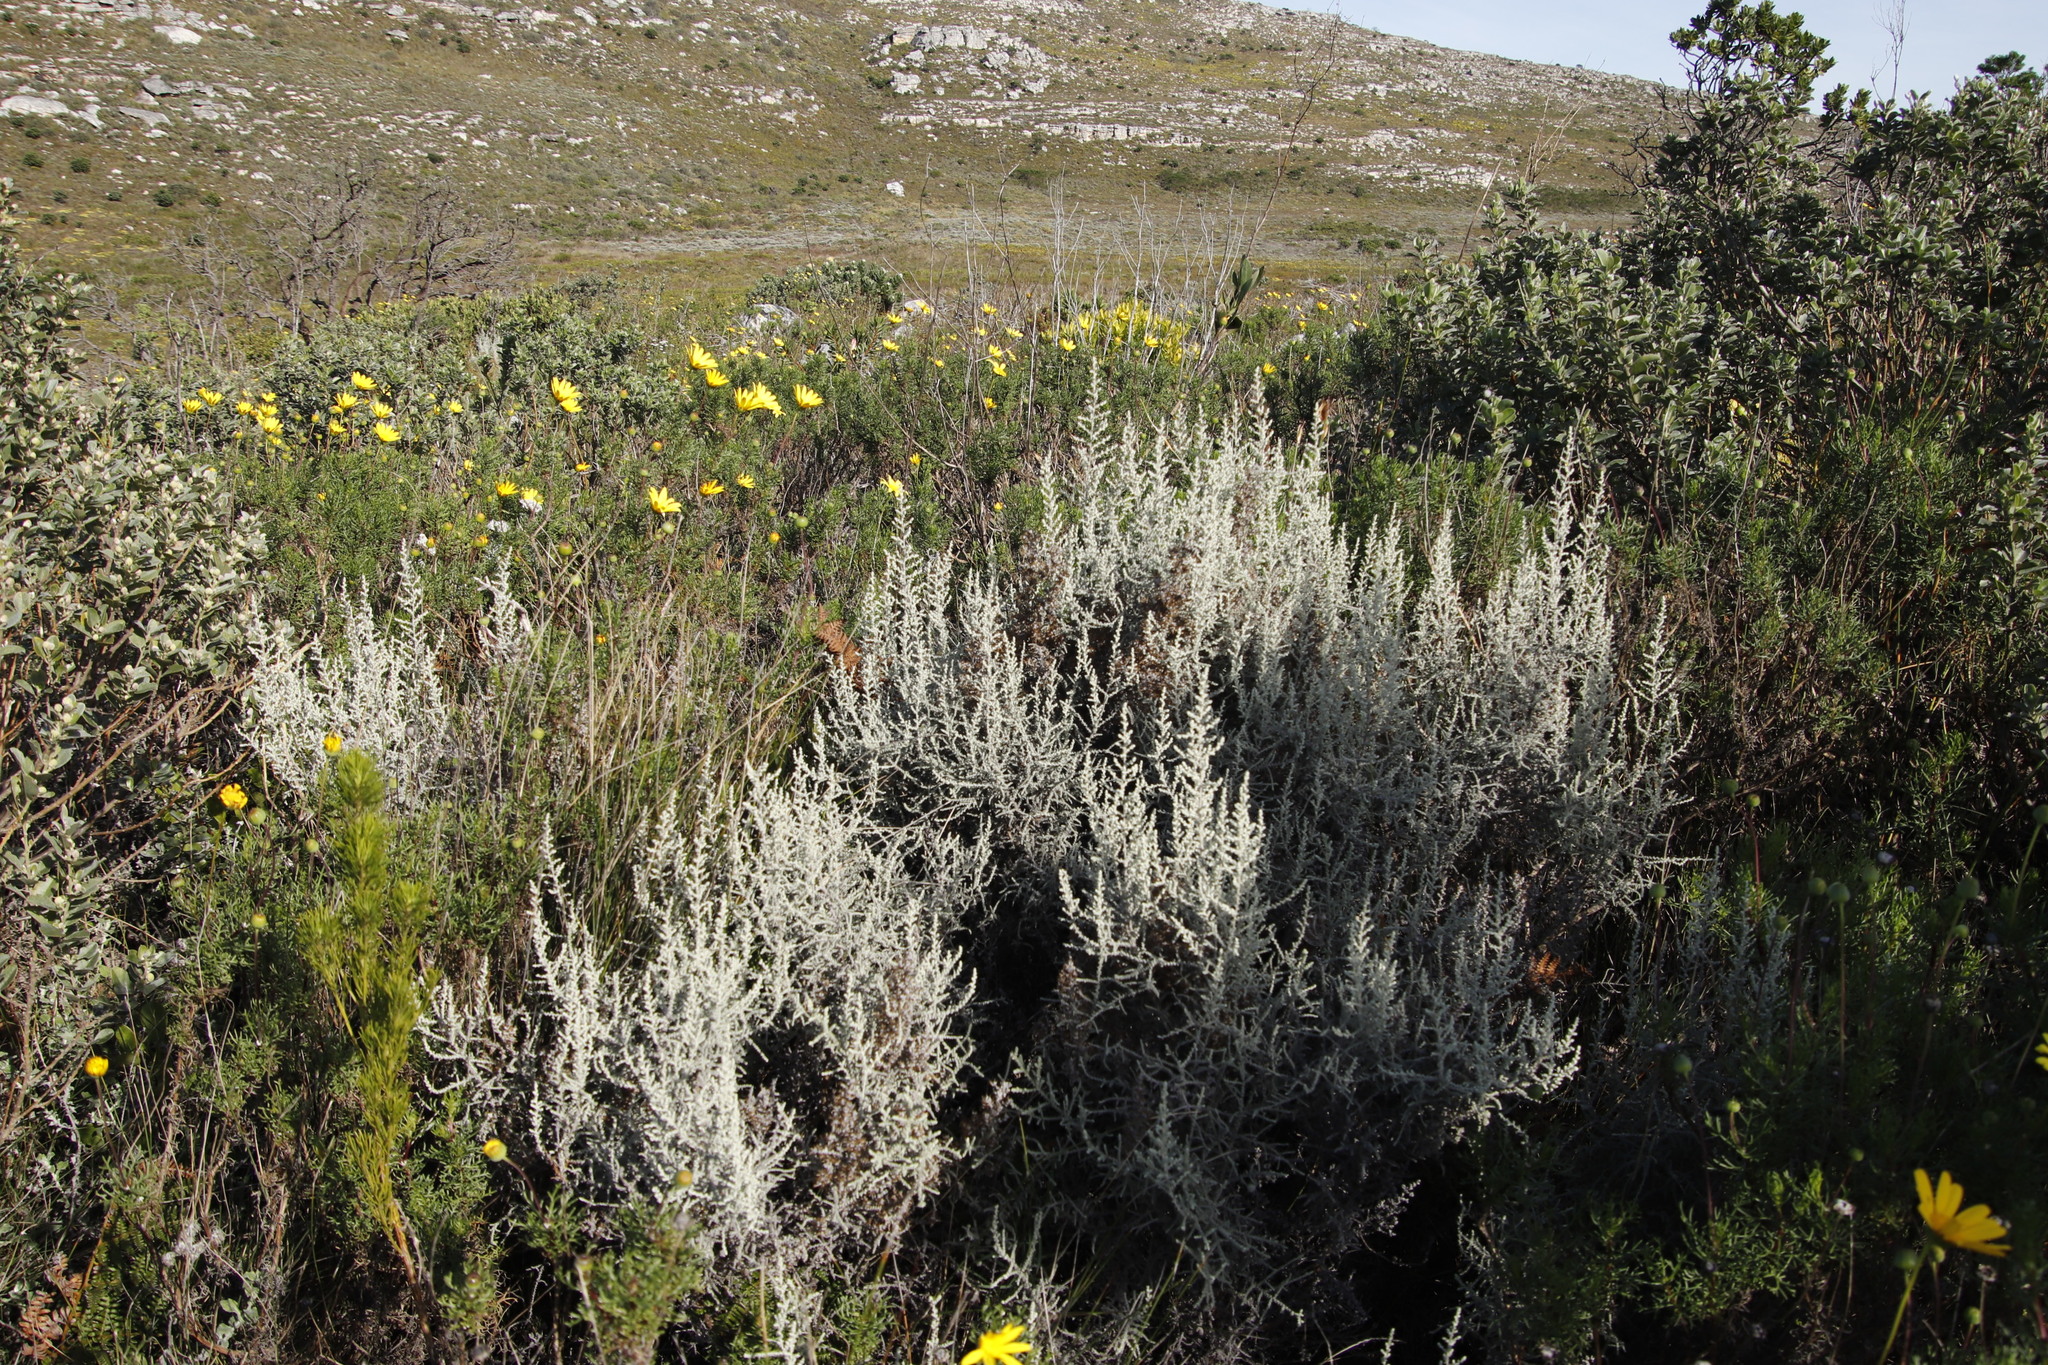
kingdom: Plantae
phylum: Tracheophyta
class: Magnoliopsida
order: Asterales
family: Asteraceae
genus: Seriphium
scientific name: Seriphium plumosum
